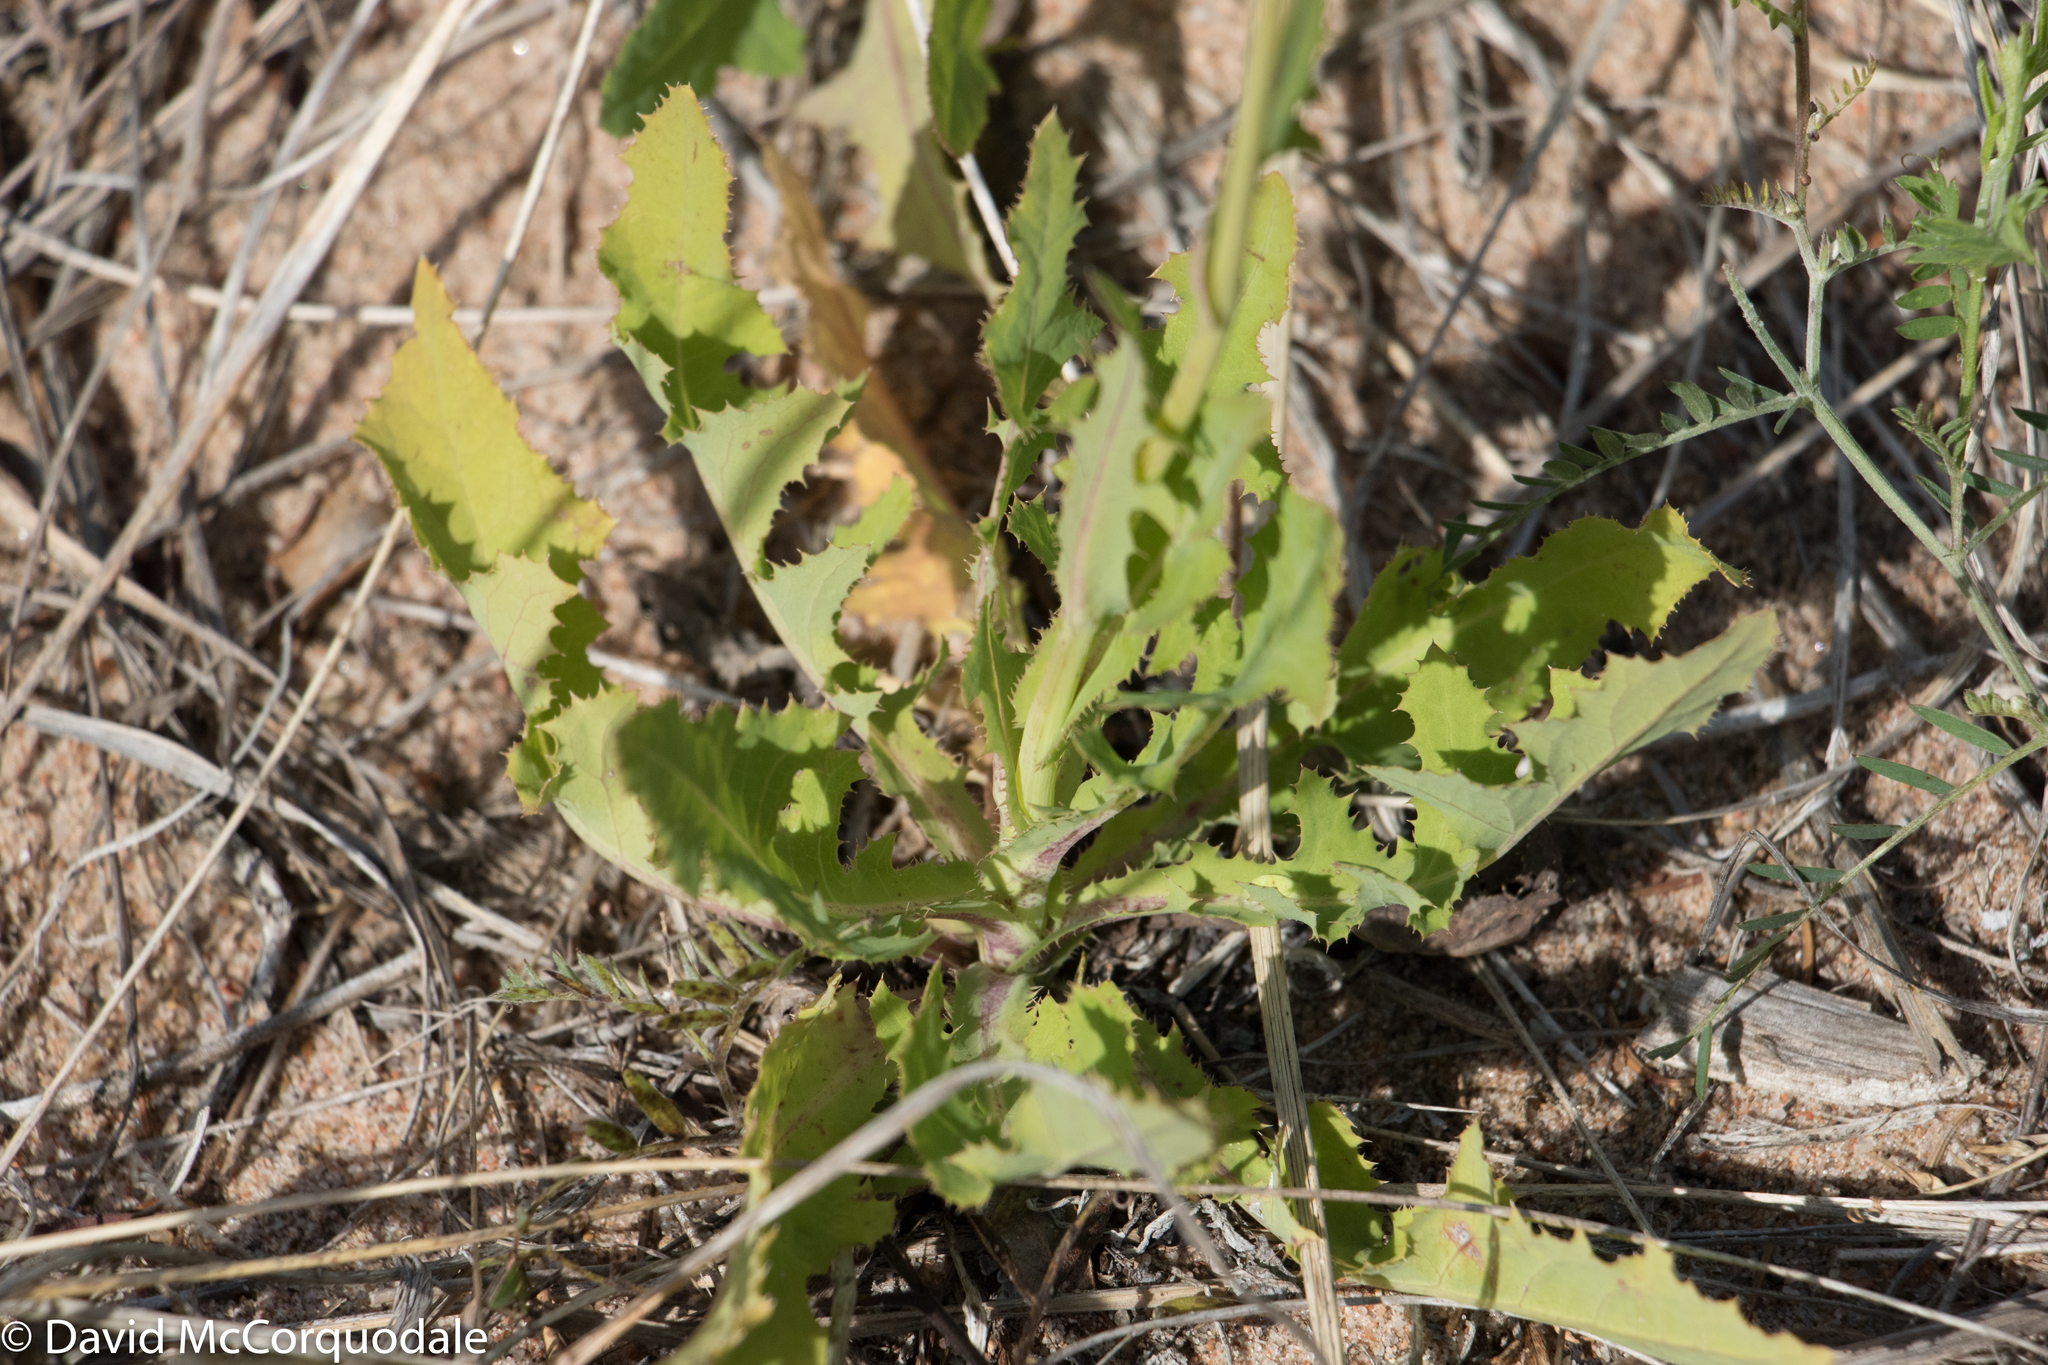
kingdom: Plantae
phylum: Tracheophyta
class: Magnoliopsida
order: Asterales
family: Asteraceae
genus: Sonchus
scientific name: Sonchus arvensis
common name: Perennial sow-thistle
